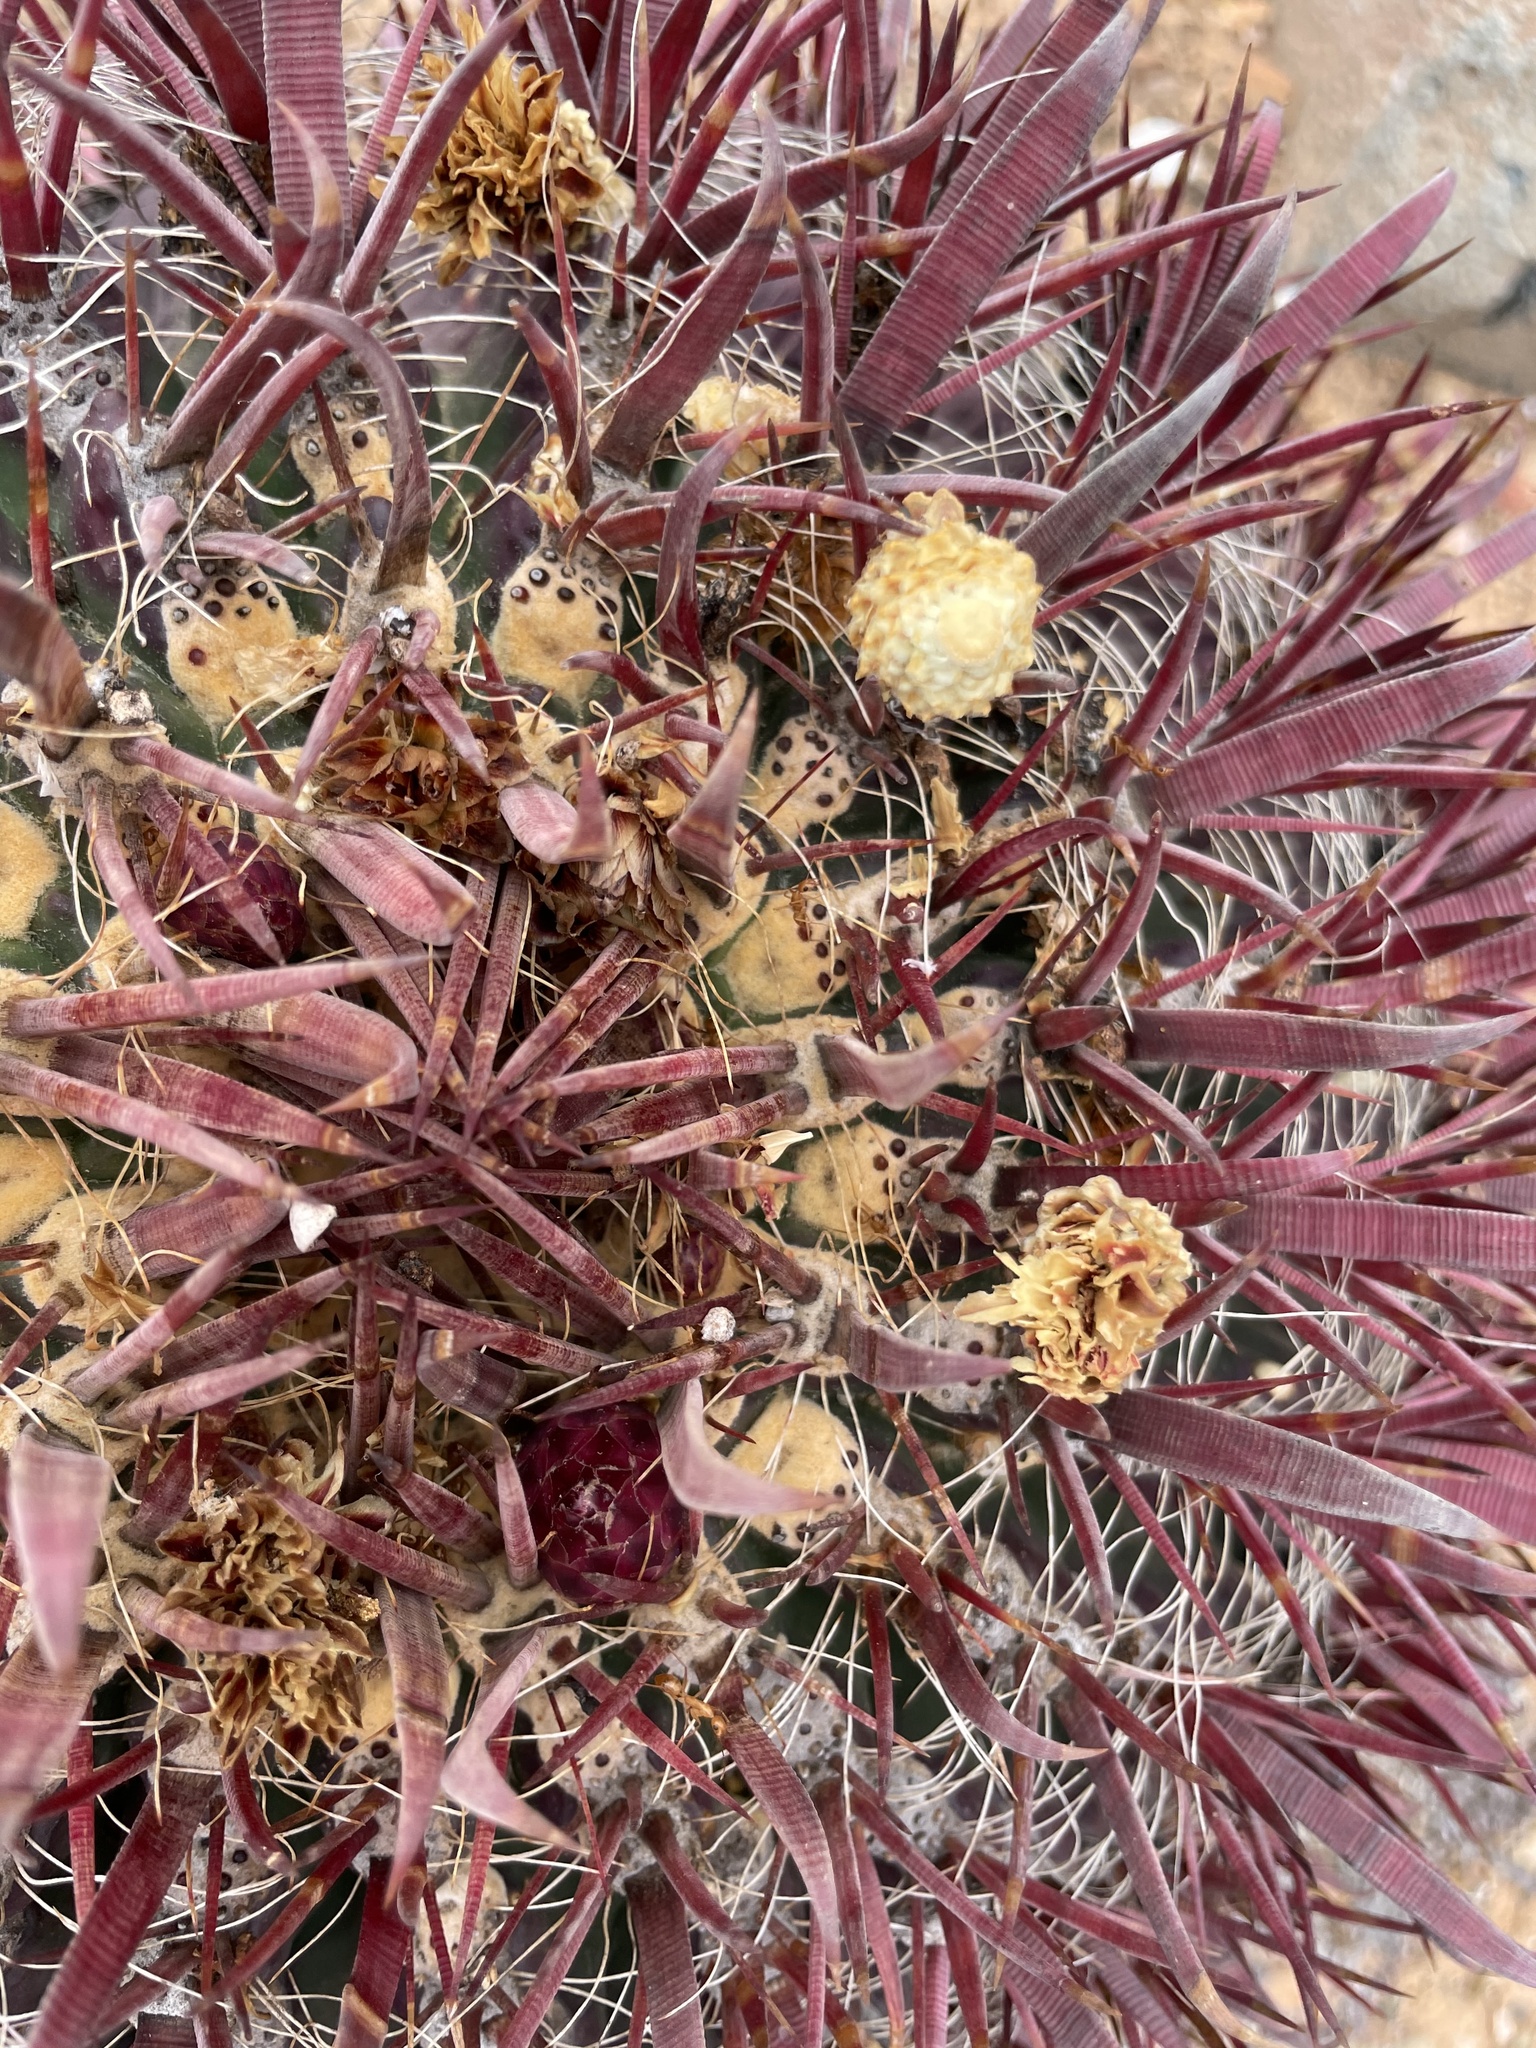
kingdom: Plantae
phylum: Tracheophyta
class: Magnoliopsida
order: Caryophyllales
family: Cactaceae
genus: Ferocactus
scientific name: Ferocactus gracilis
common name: Fire barrel cactus
